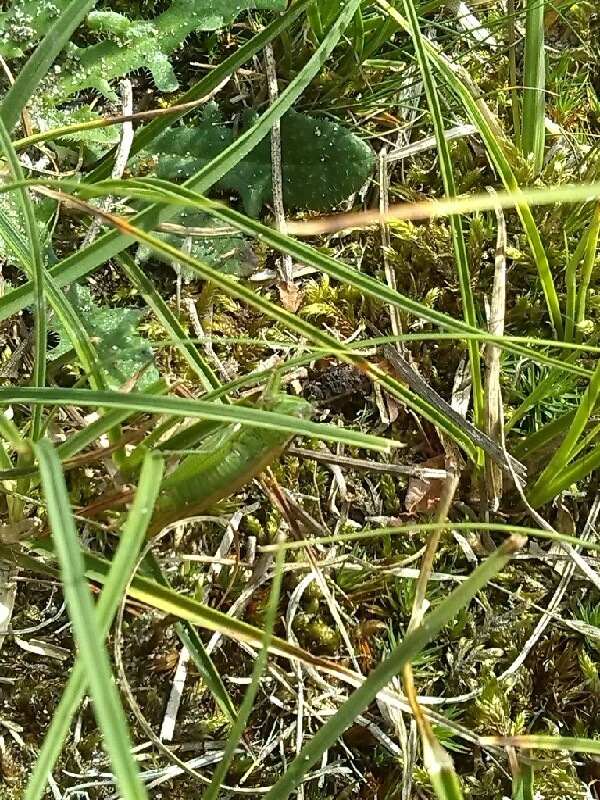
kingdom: Animalia
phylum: Arthropoda
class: Insecta
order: Orthoptera
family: Tettigoniidae
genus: Conocephalus
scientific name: Conocephalus fuscus
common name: Long-winged conehead
